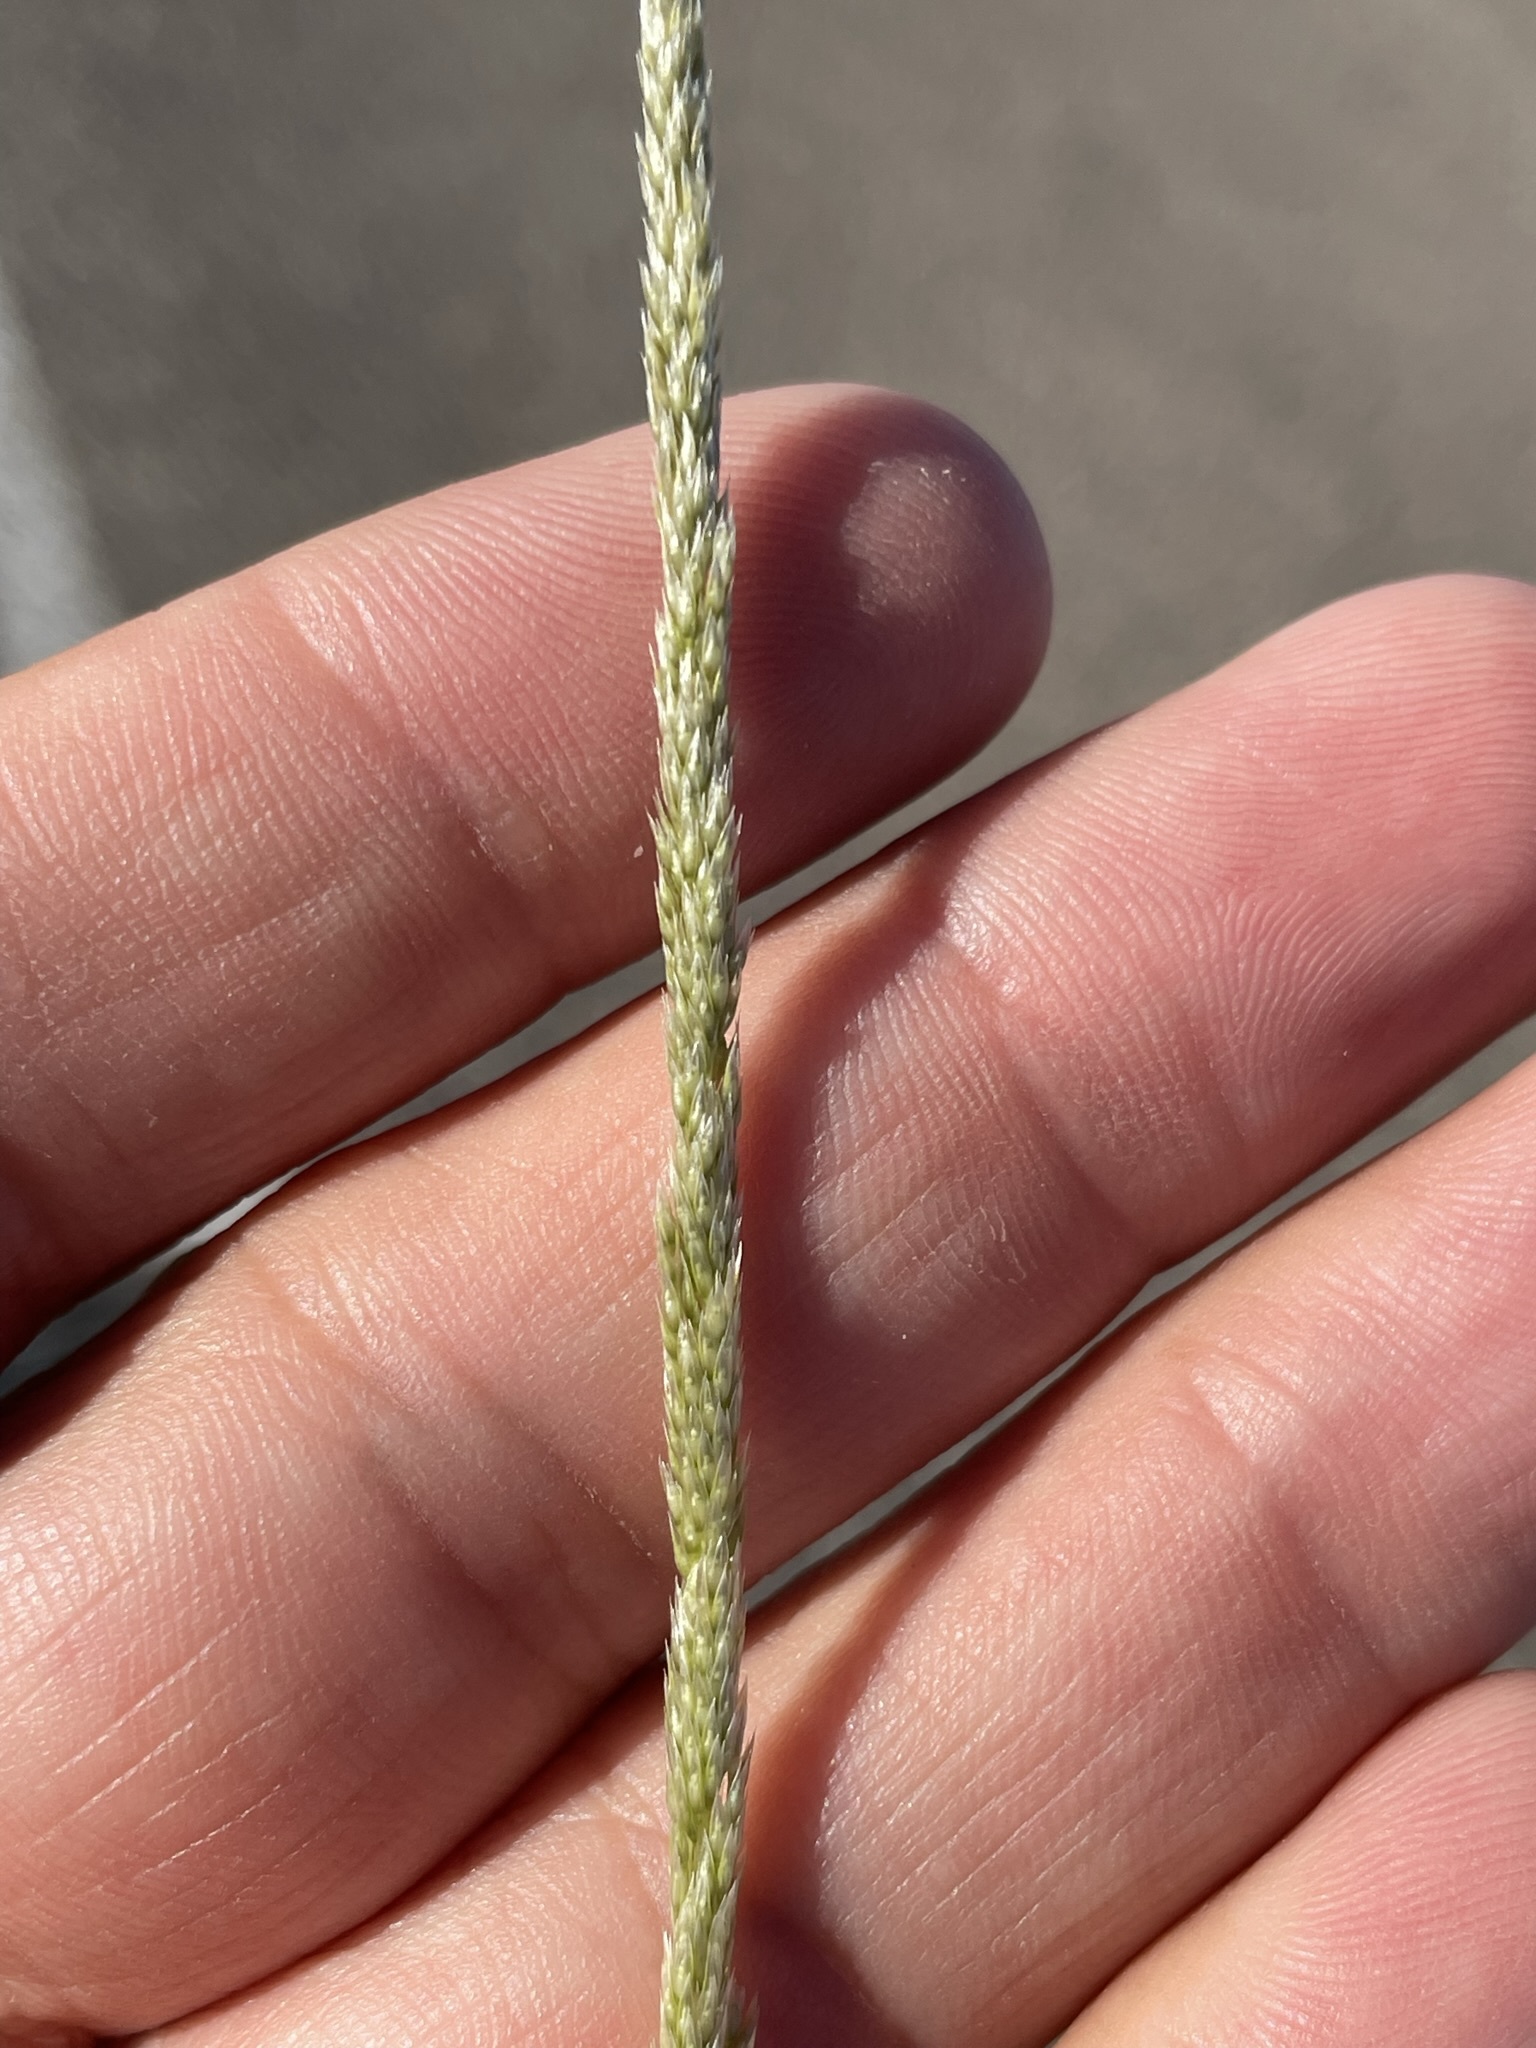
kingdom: Plantae
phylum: Tracheophyta
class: Liliopsida
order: Poales
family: Poaceae
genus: Sporobolus
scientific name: Sporobolus contractus
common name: Spike dropseed
